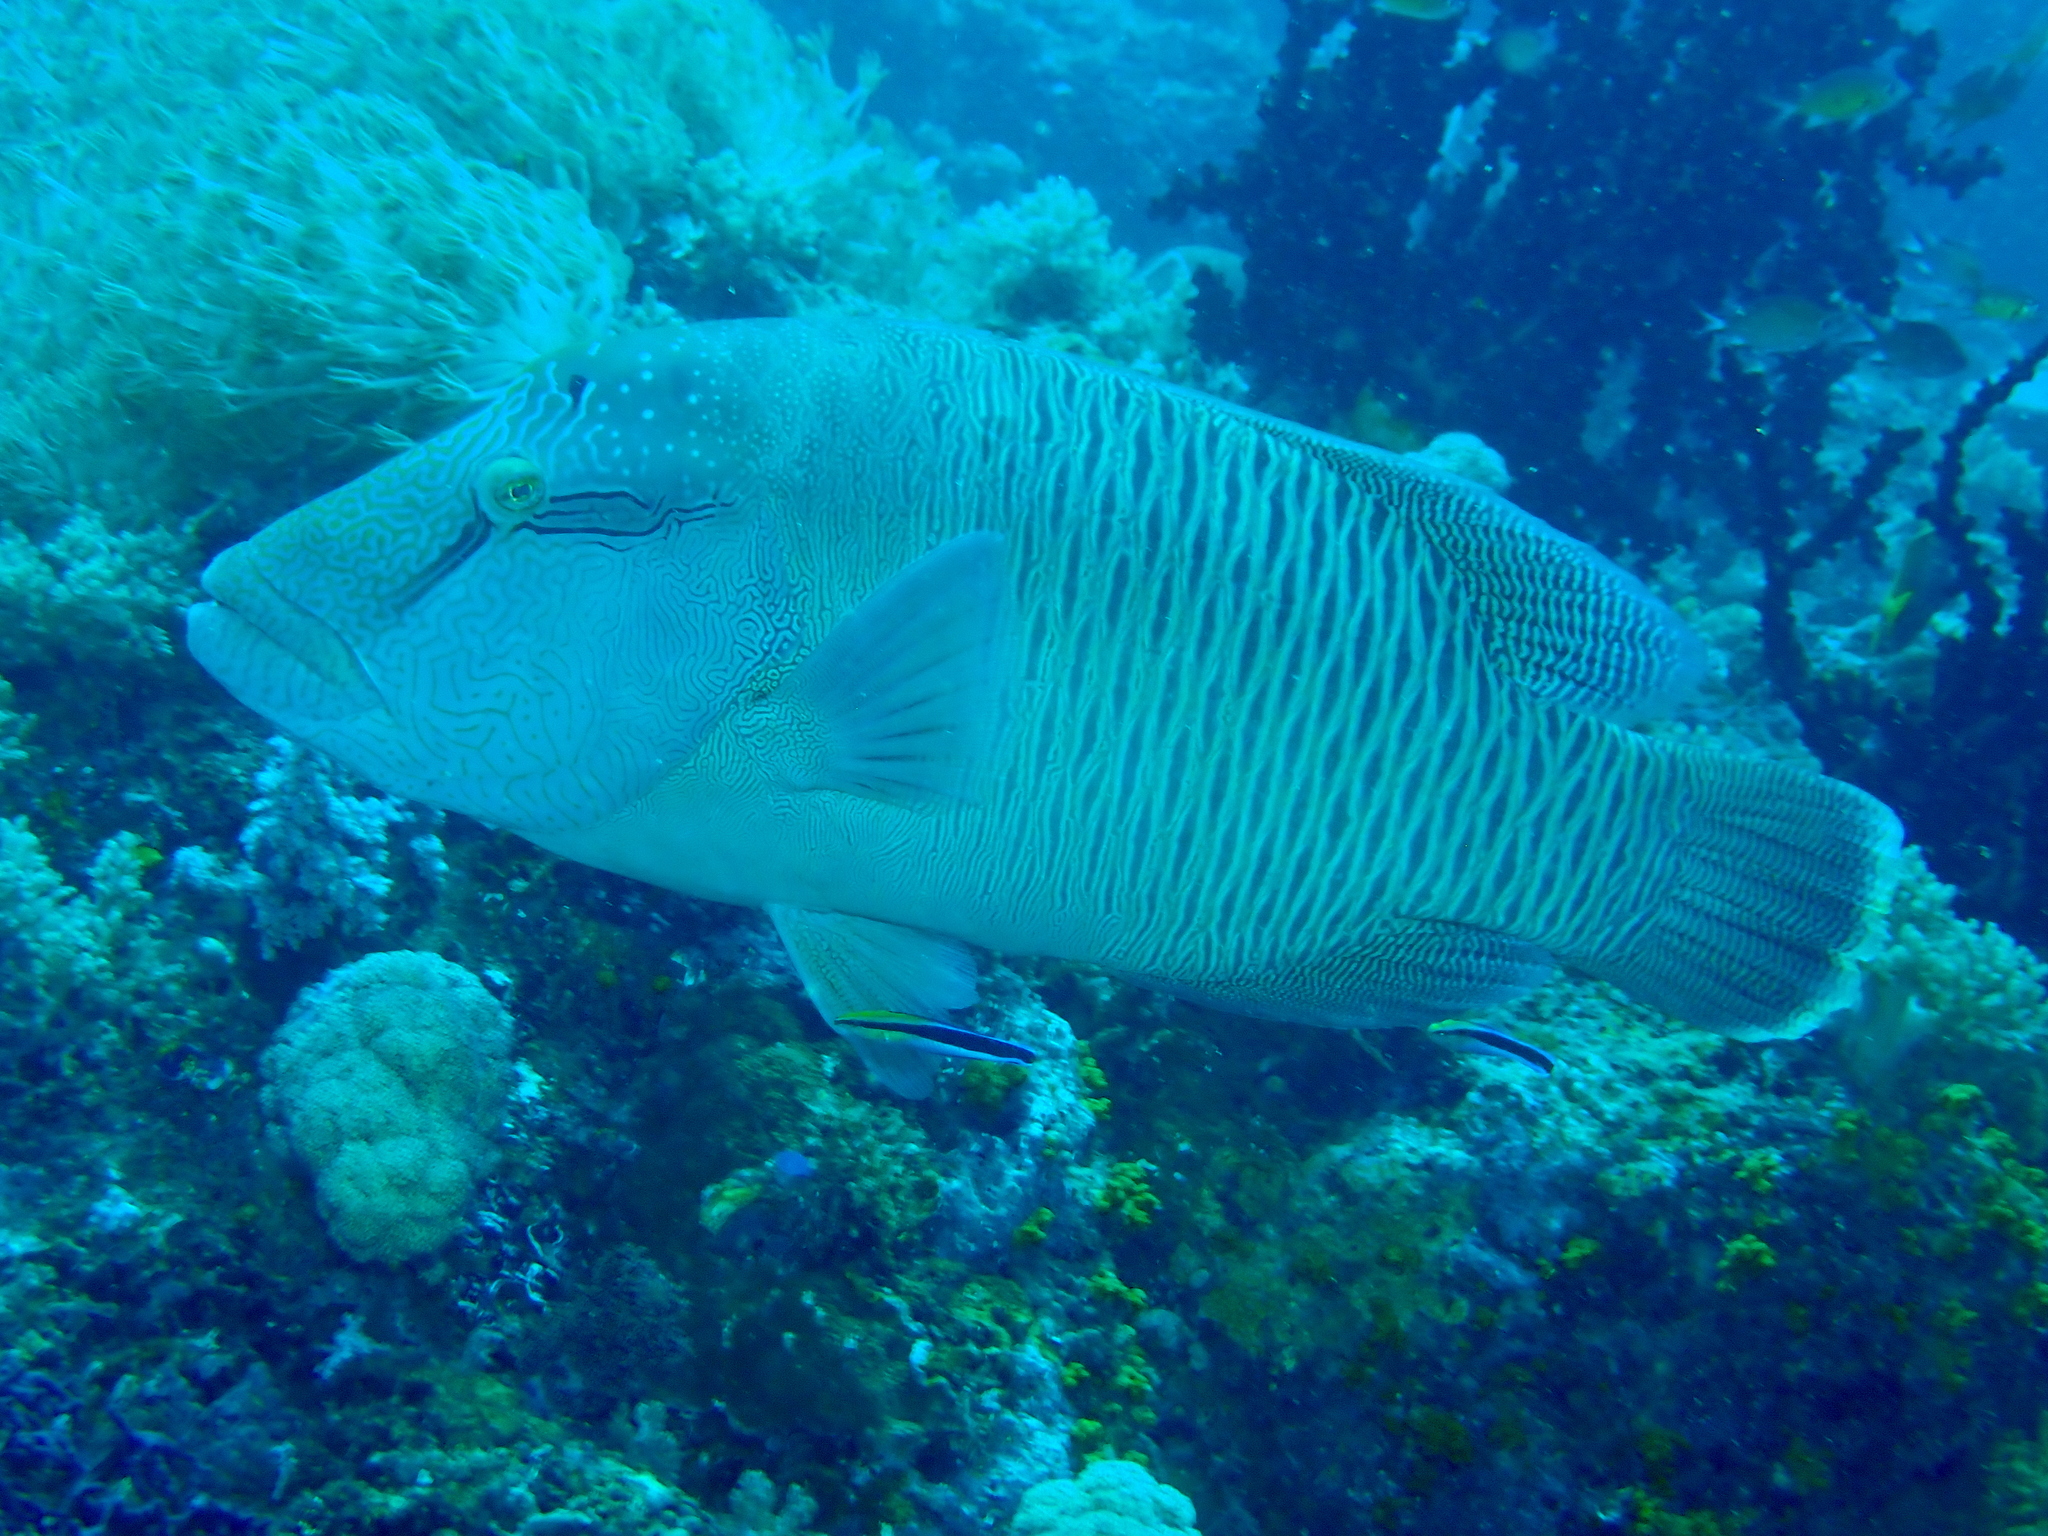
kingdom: Animalia
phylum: Chordata
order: Perciformes
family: Labridae
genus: Cheilinus
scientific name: Cheilinus undulatus
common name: Humphead wrasse
